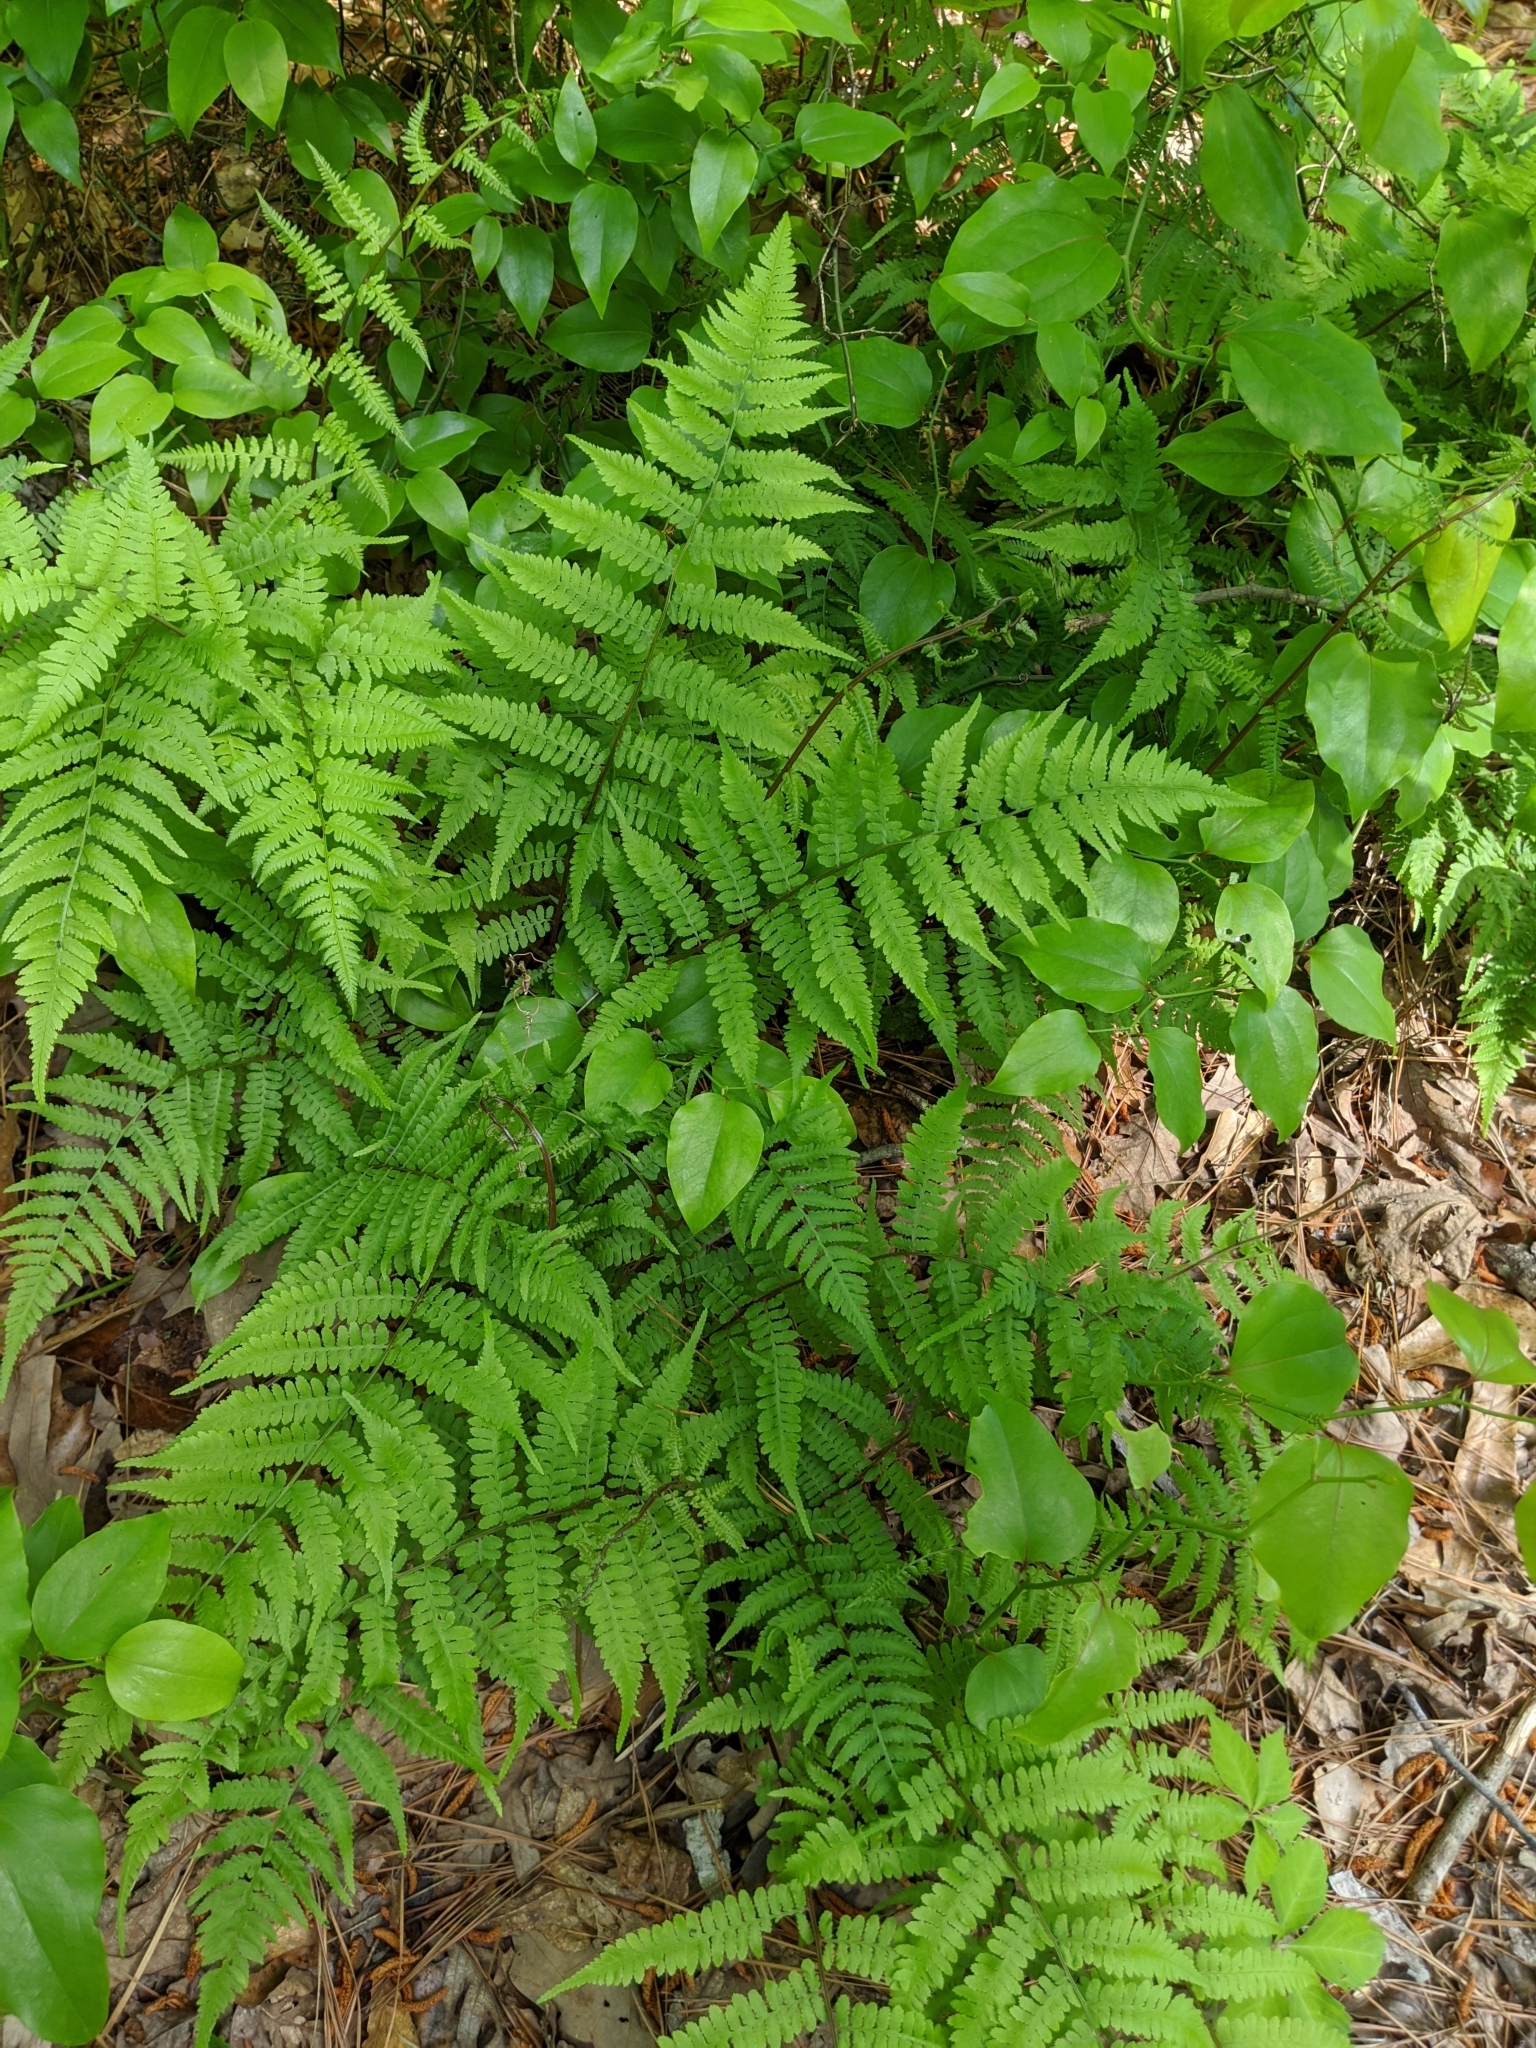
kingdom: Plantae
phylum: Tracheophyta
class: Polypodiopsida
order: Polypodiales
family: Athyriaceae
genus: Athyrium
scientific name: Athyrium asplenioides
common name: Southern lady fern
